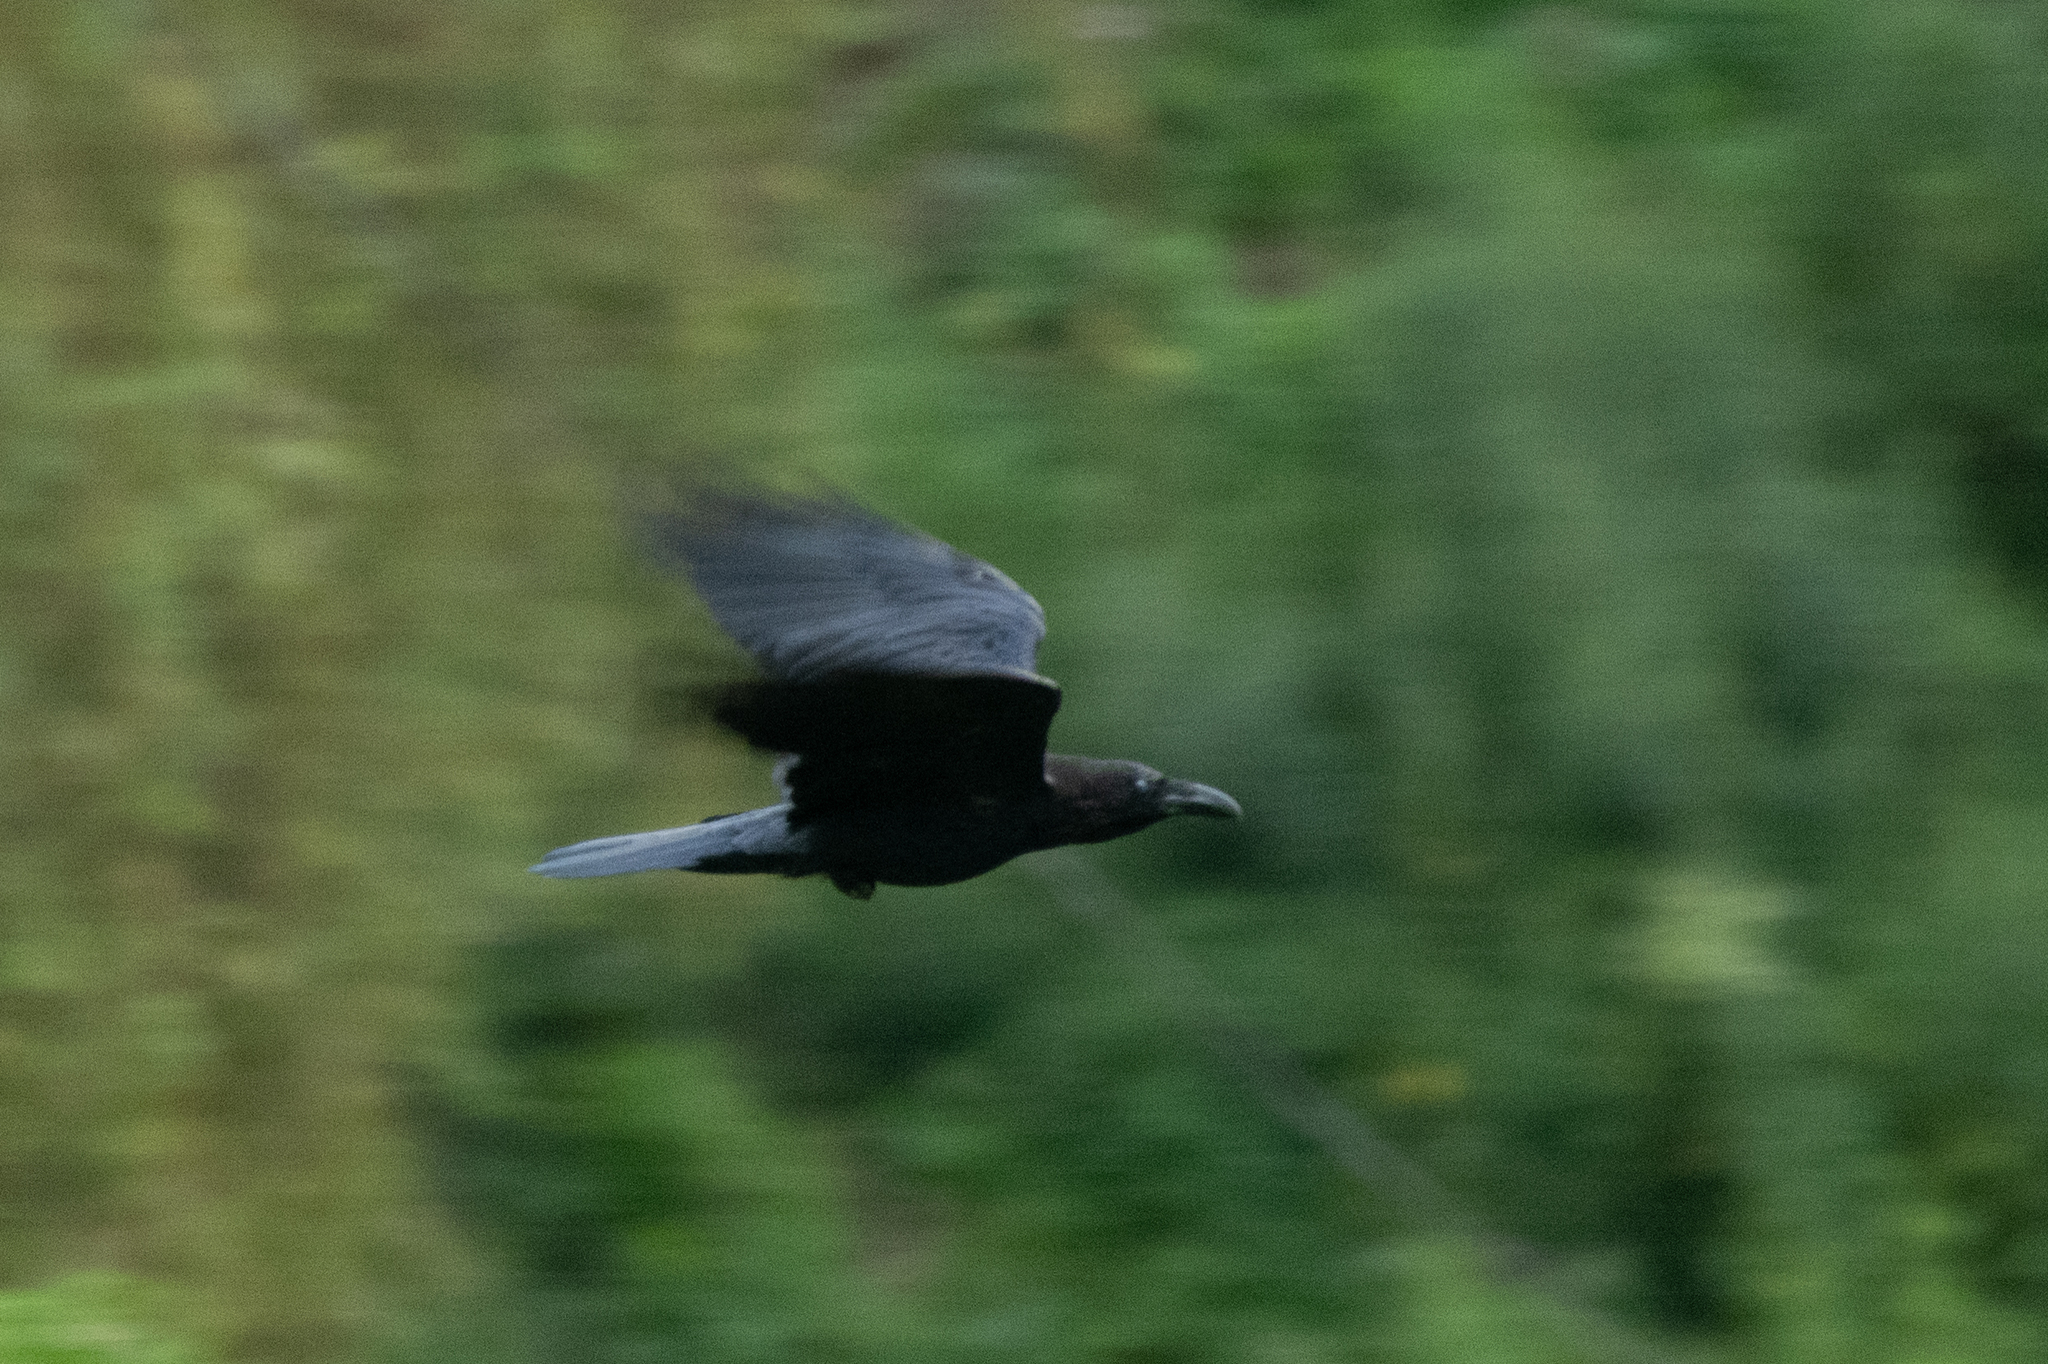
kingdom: Animalia
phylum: Chordata
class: Aves
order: Passeriformes
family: Corvidae
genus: Corvus
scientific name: Corvus corax
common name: Common raven
